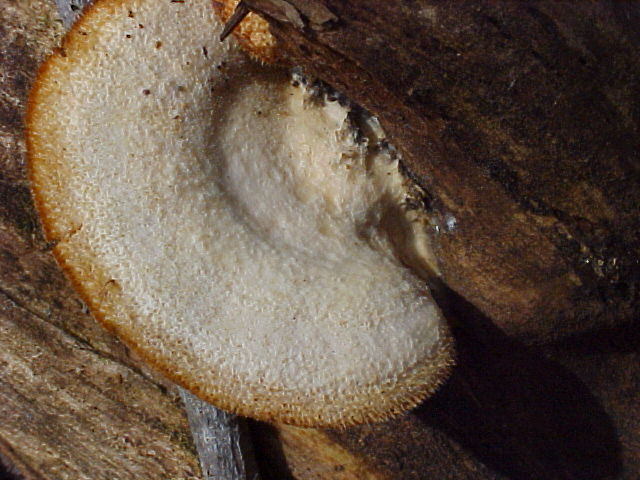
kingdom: Fungi
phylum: Basidiomycota
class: Agaricomycetes
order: Agaricales
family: Phyllotopsidaceae
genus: Phyllotopsis
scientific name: Phyllotopsis nidulans
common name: Orange mock oyster
